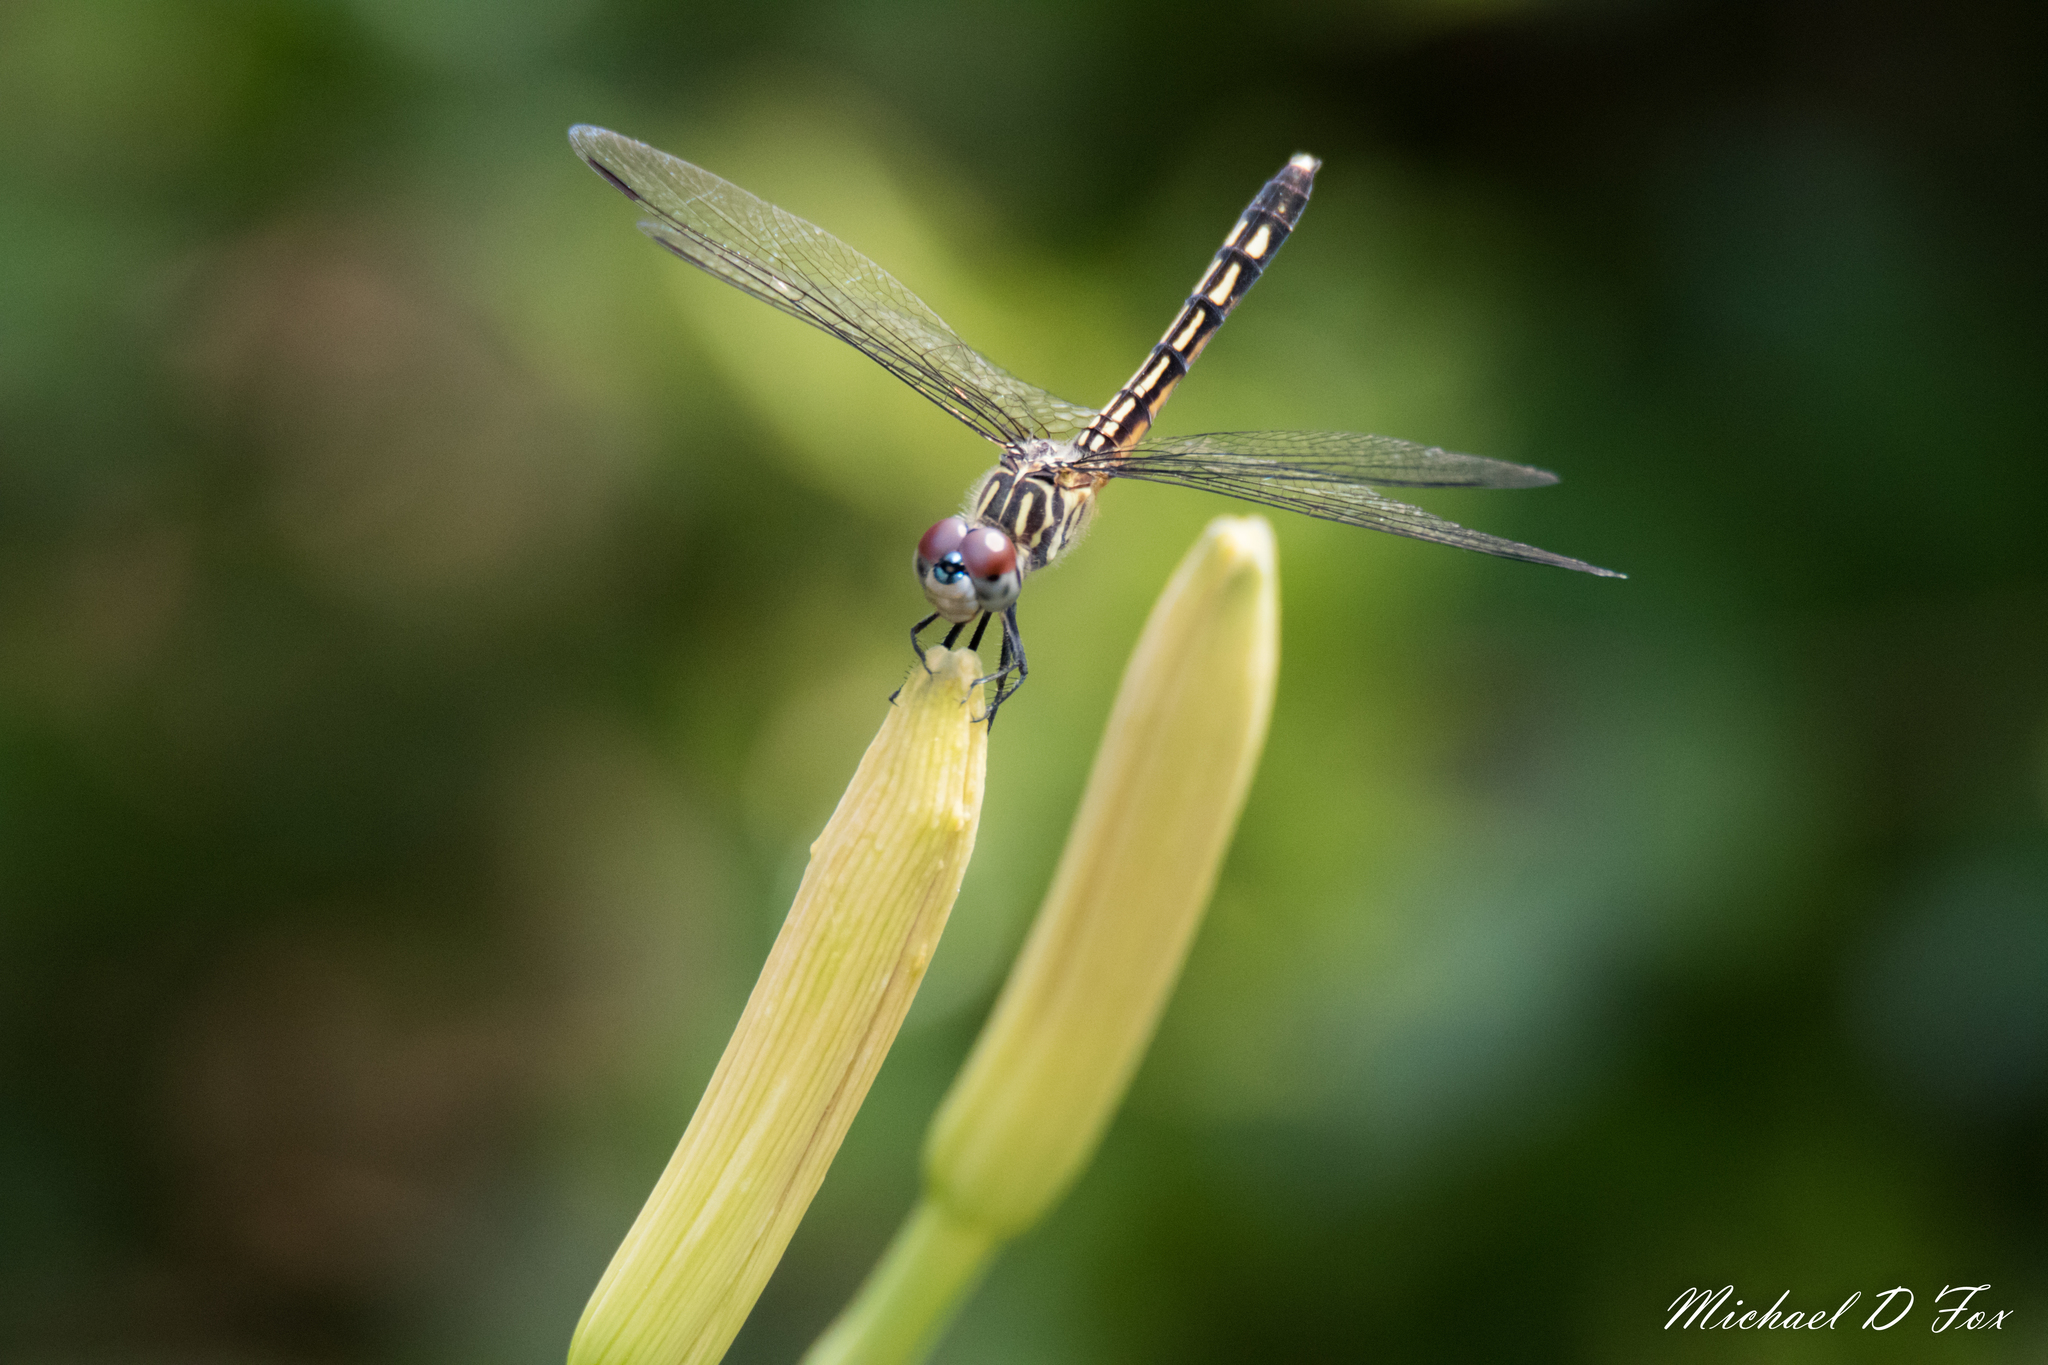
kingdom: Animalia
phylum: Arthropoda
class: Insecta
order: Odonata
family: Libellulidae
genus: Pachydiplax
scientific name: Pachydiplax longipennis
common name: Blue dasher
